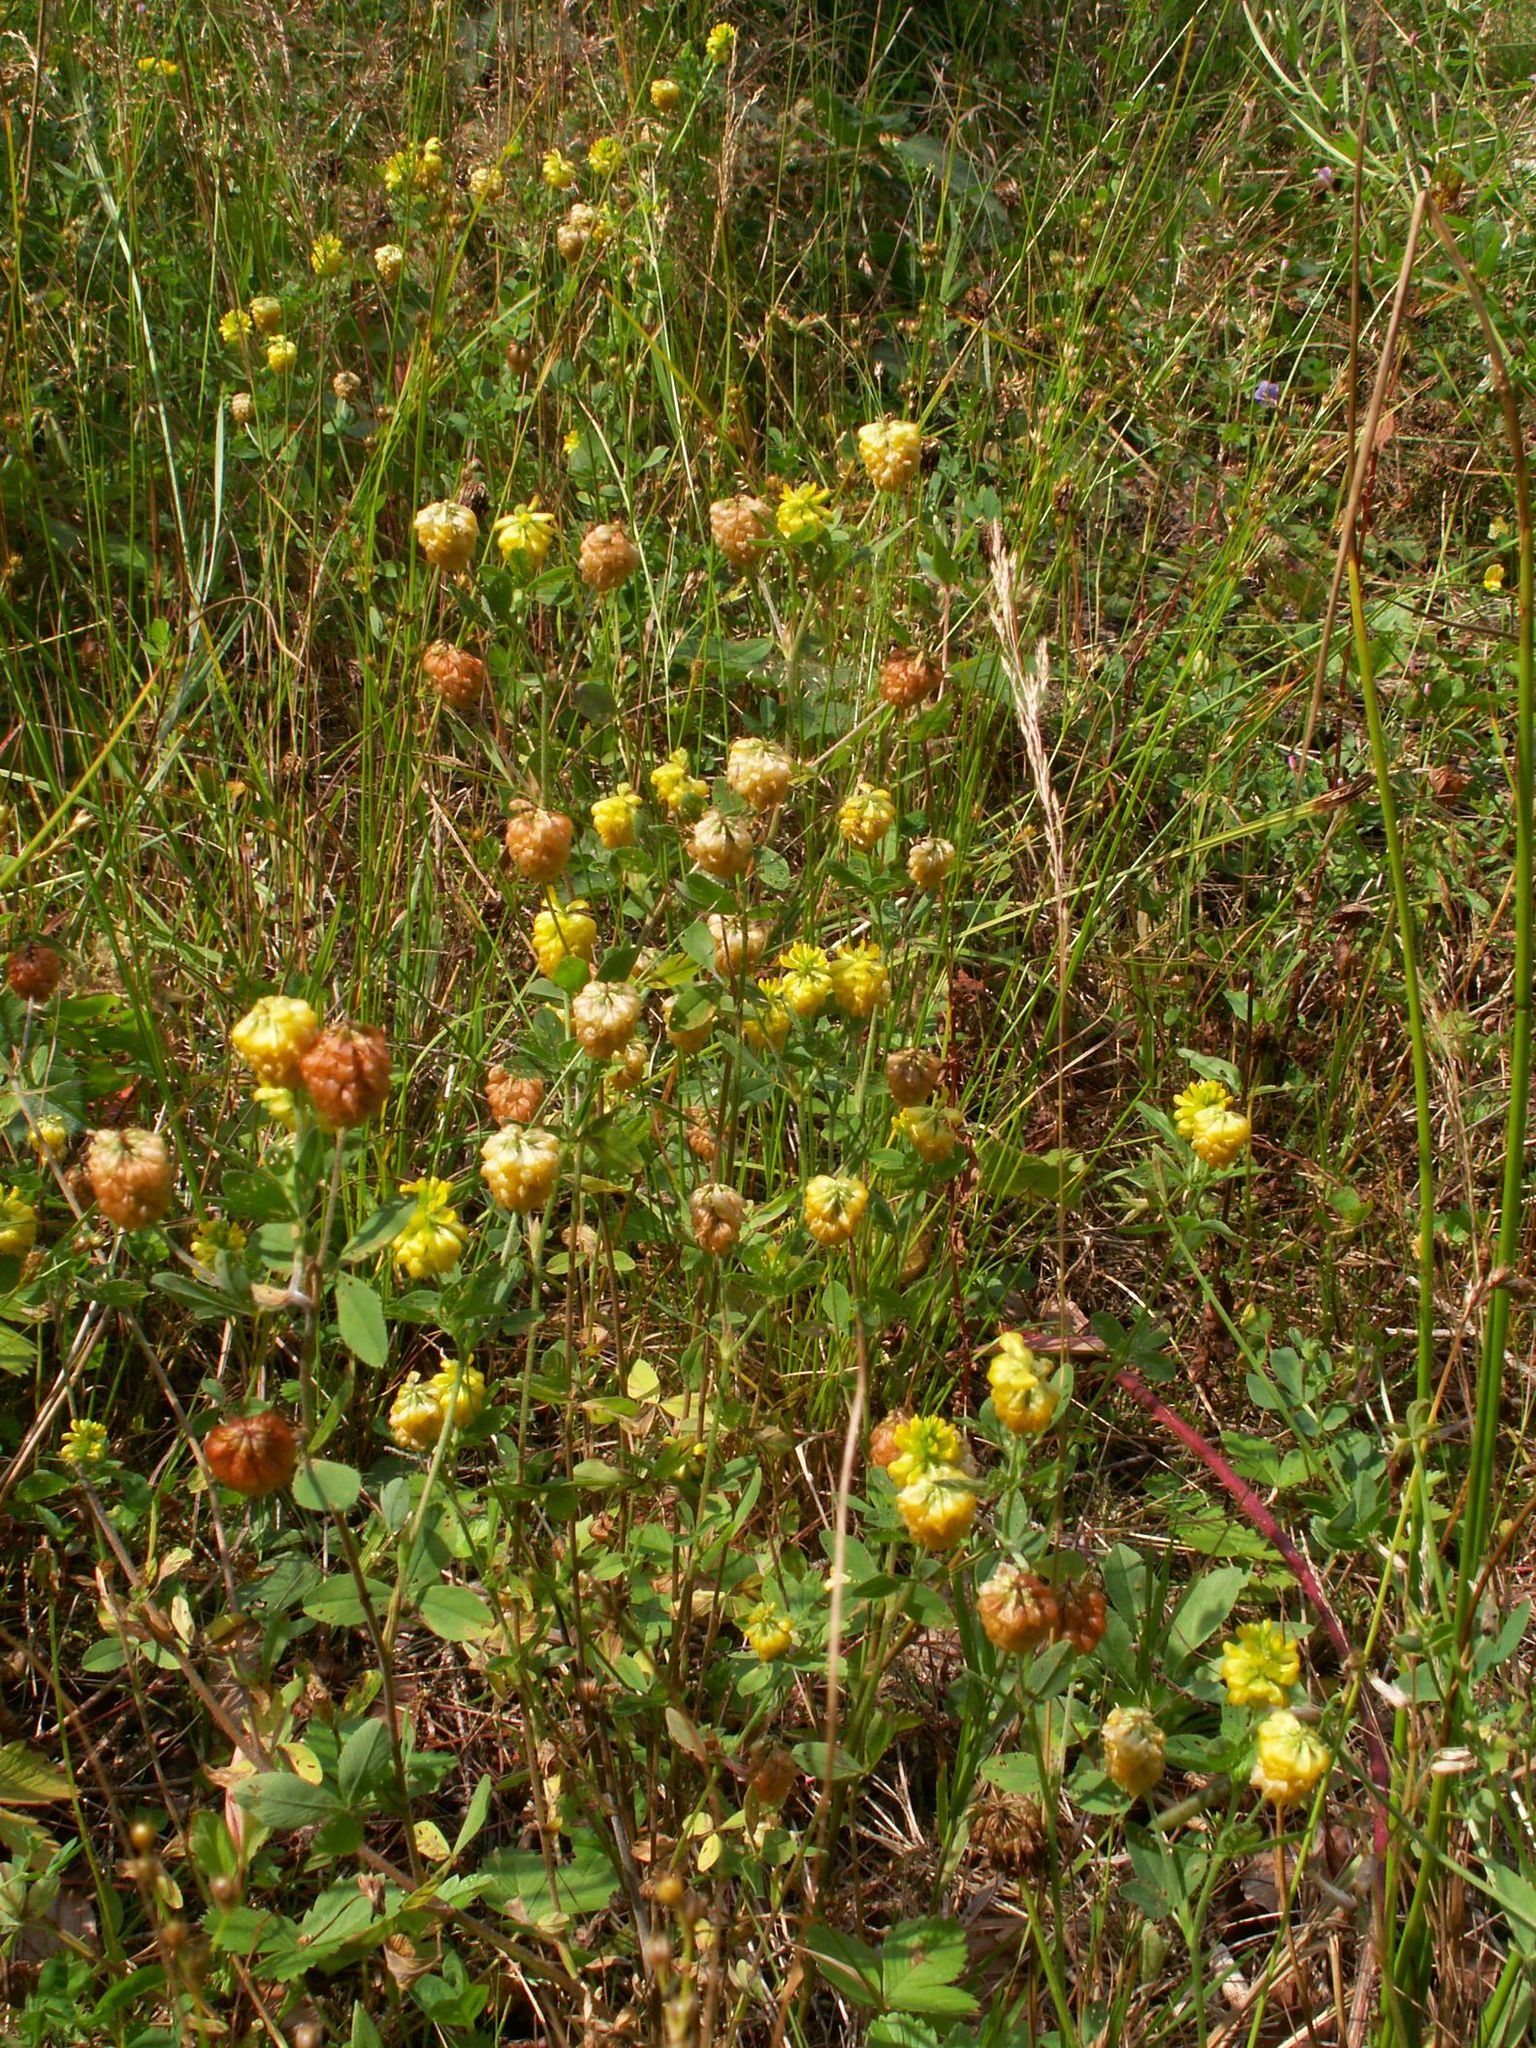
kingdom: Plantae
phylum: Tracheophyta
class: Magnoliopsida
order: Fabales
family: Fabaceae
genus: Trifolium
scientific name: Trifolium aureum
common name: Golden clover
